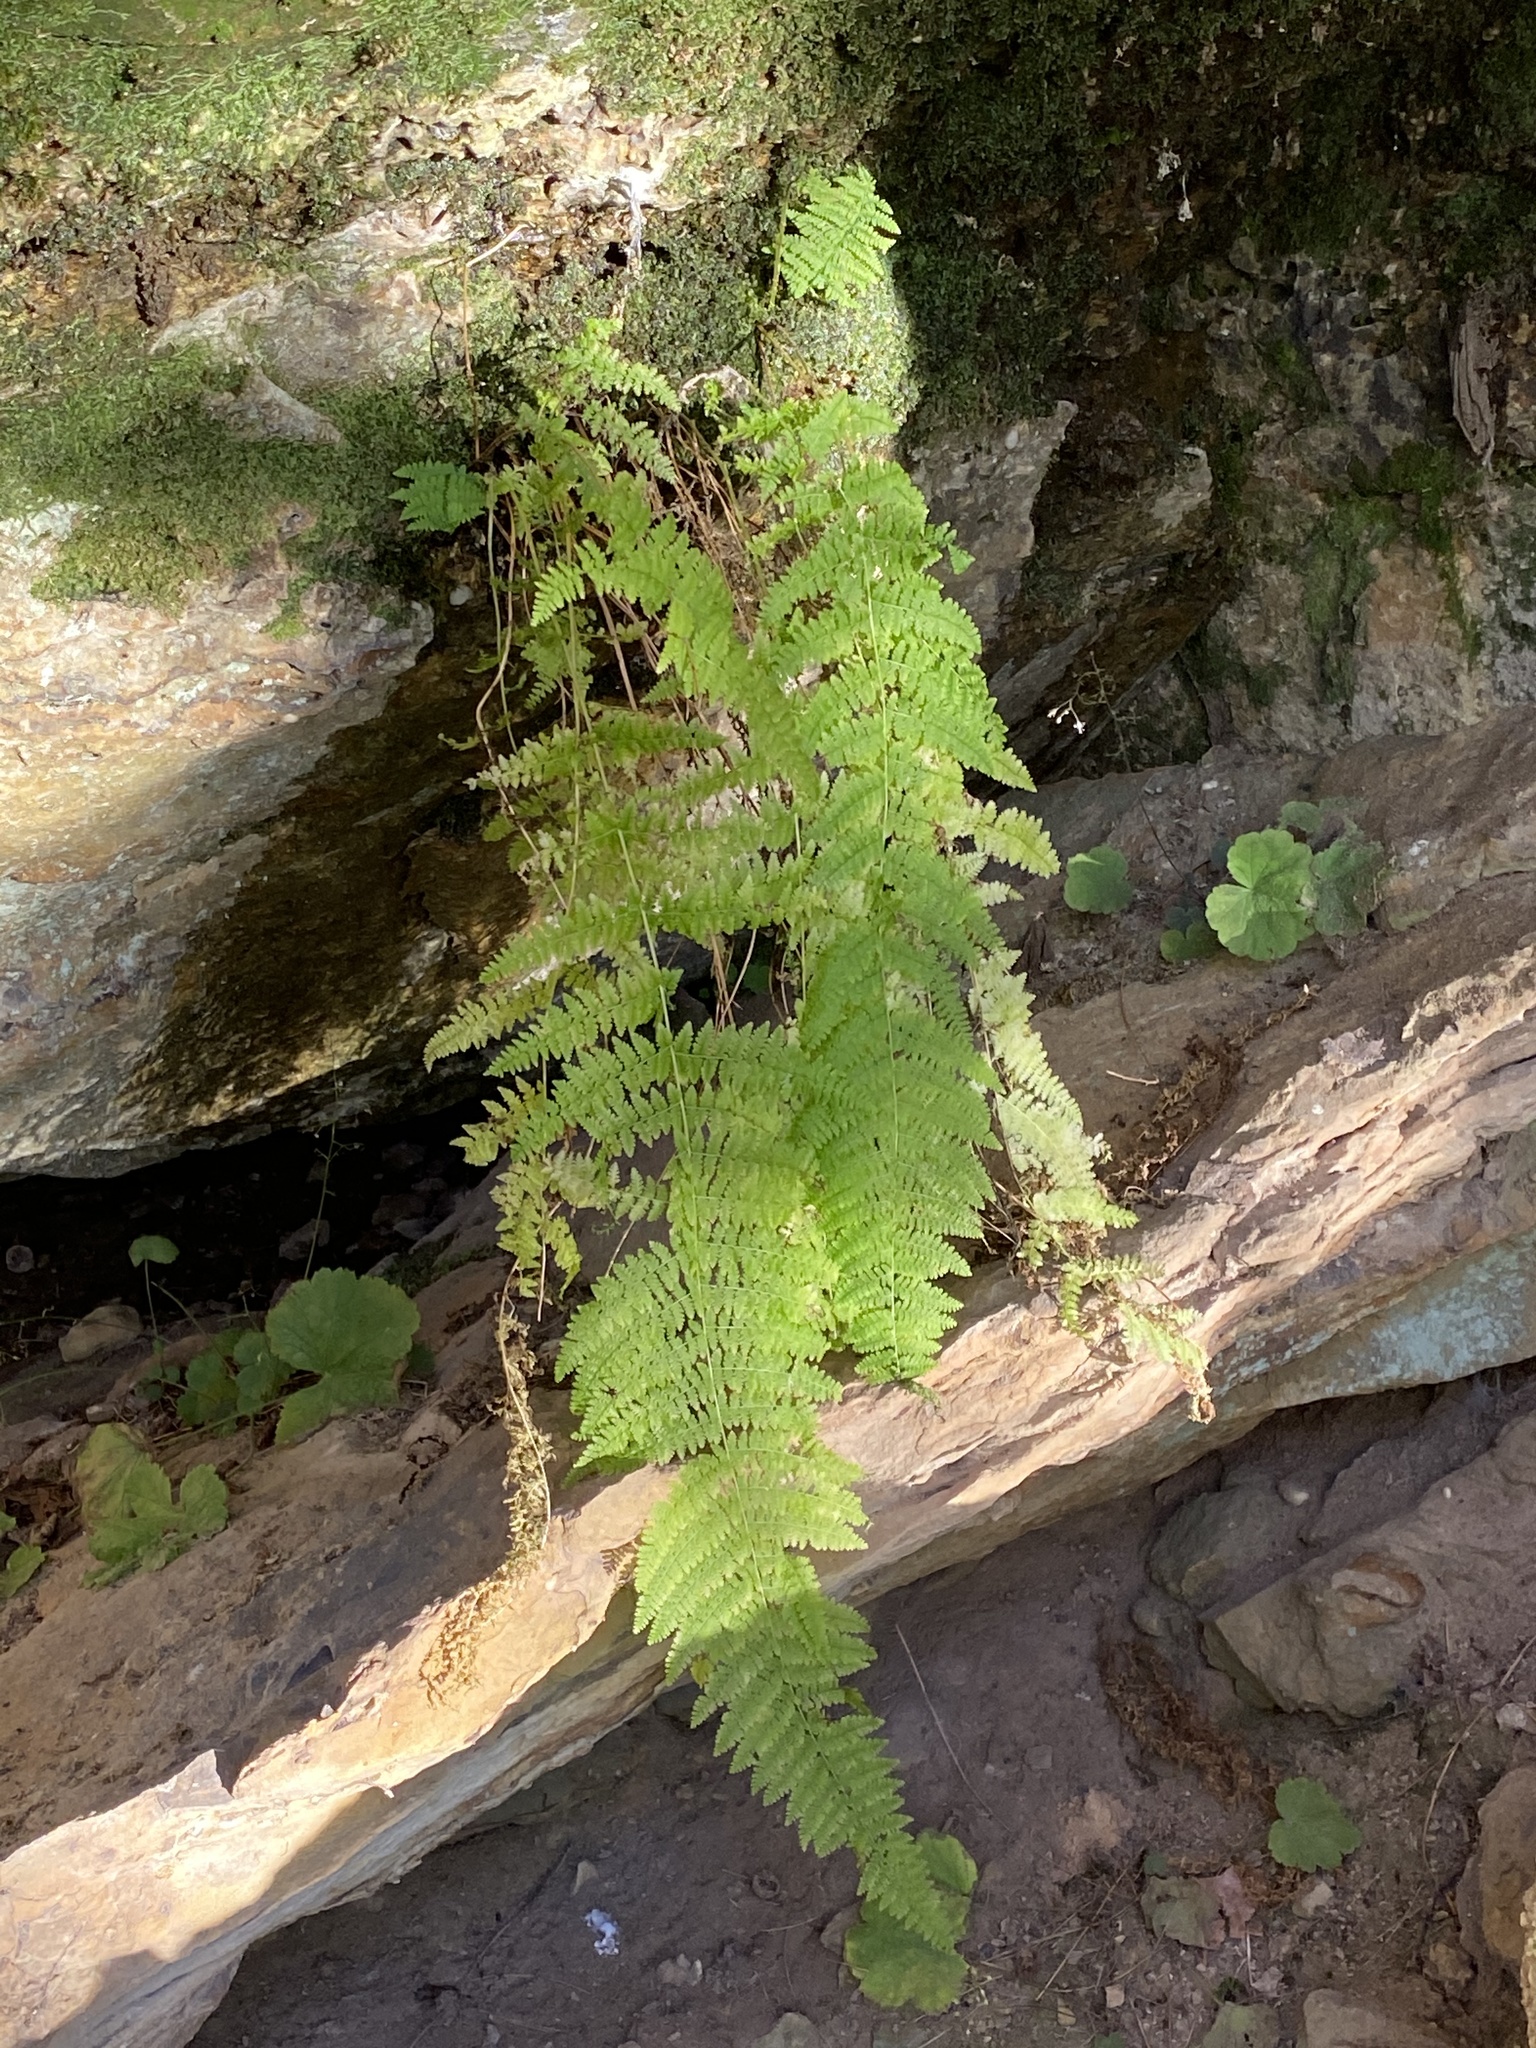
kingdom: Plantae
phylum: Tracheophyta
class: Polypodiopsida
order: Polypodiales
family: Dennstaedtiaceae
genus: Sitobolium
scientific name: Sitobolium punctilobum
